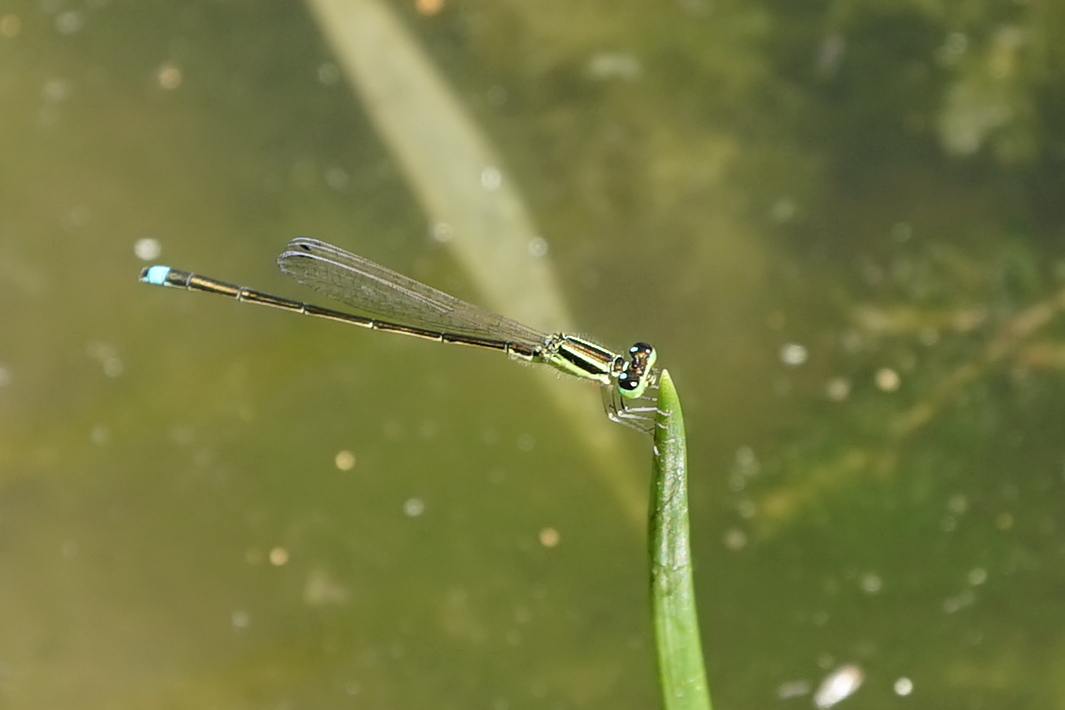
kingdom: Animalia
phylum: Arthropoda
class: Insecta
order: Odonata
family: Coenagrionidae
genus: Ischnura
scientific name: Ischnura asiatica
